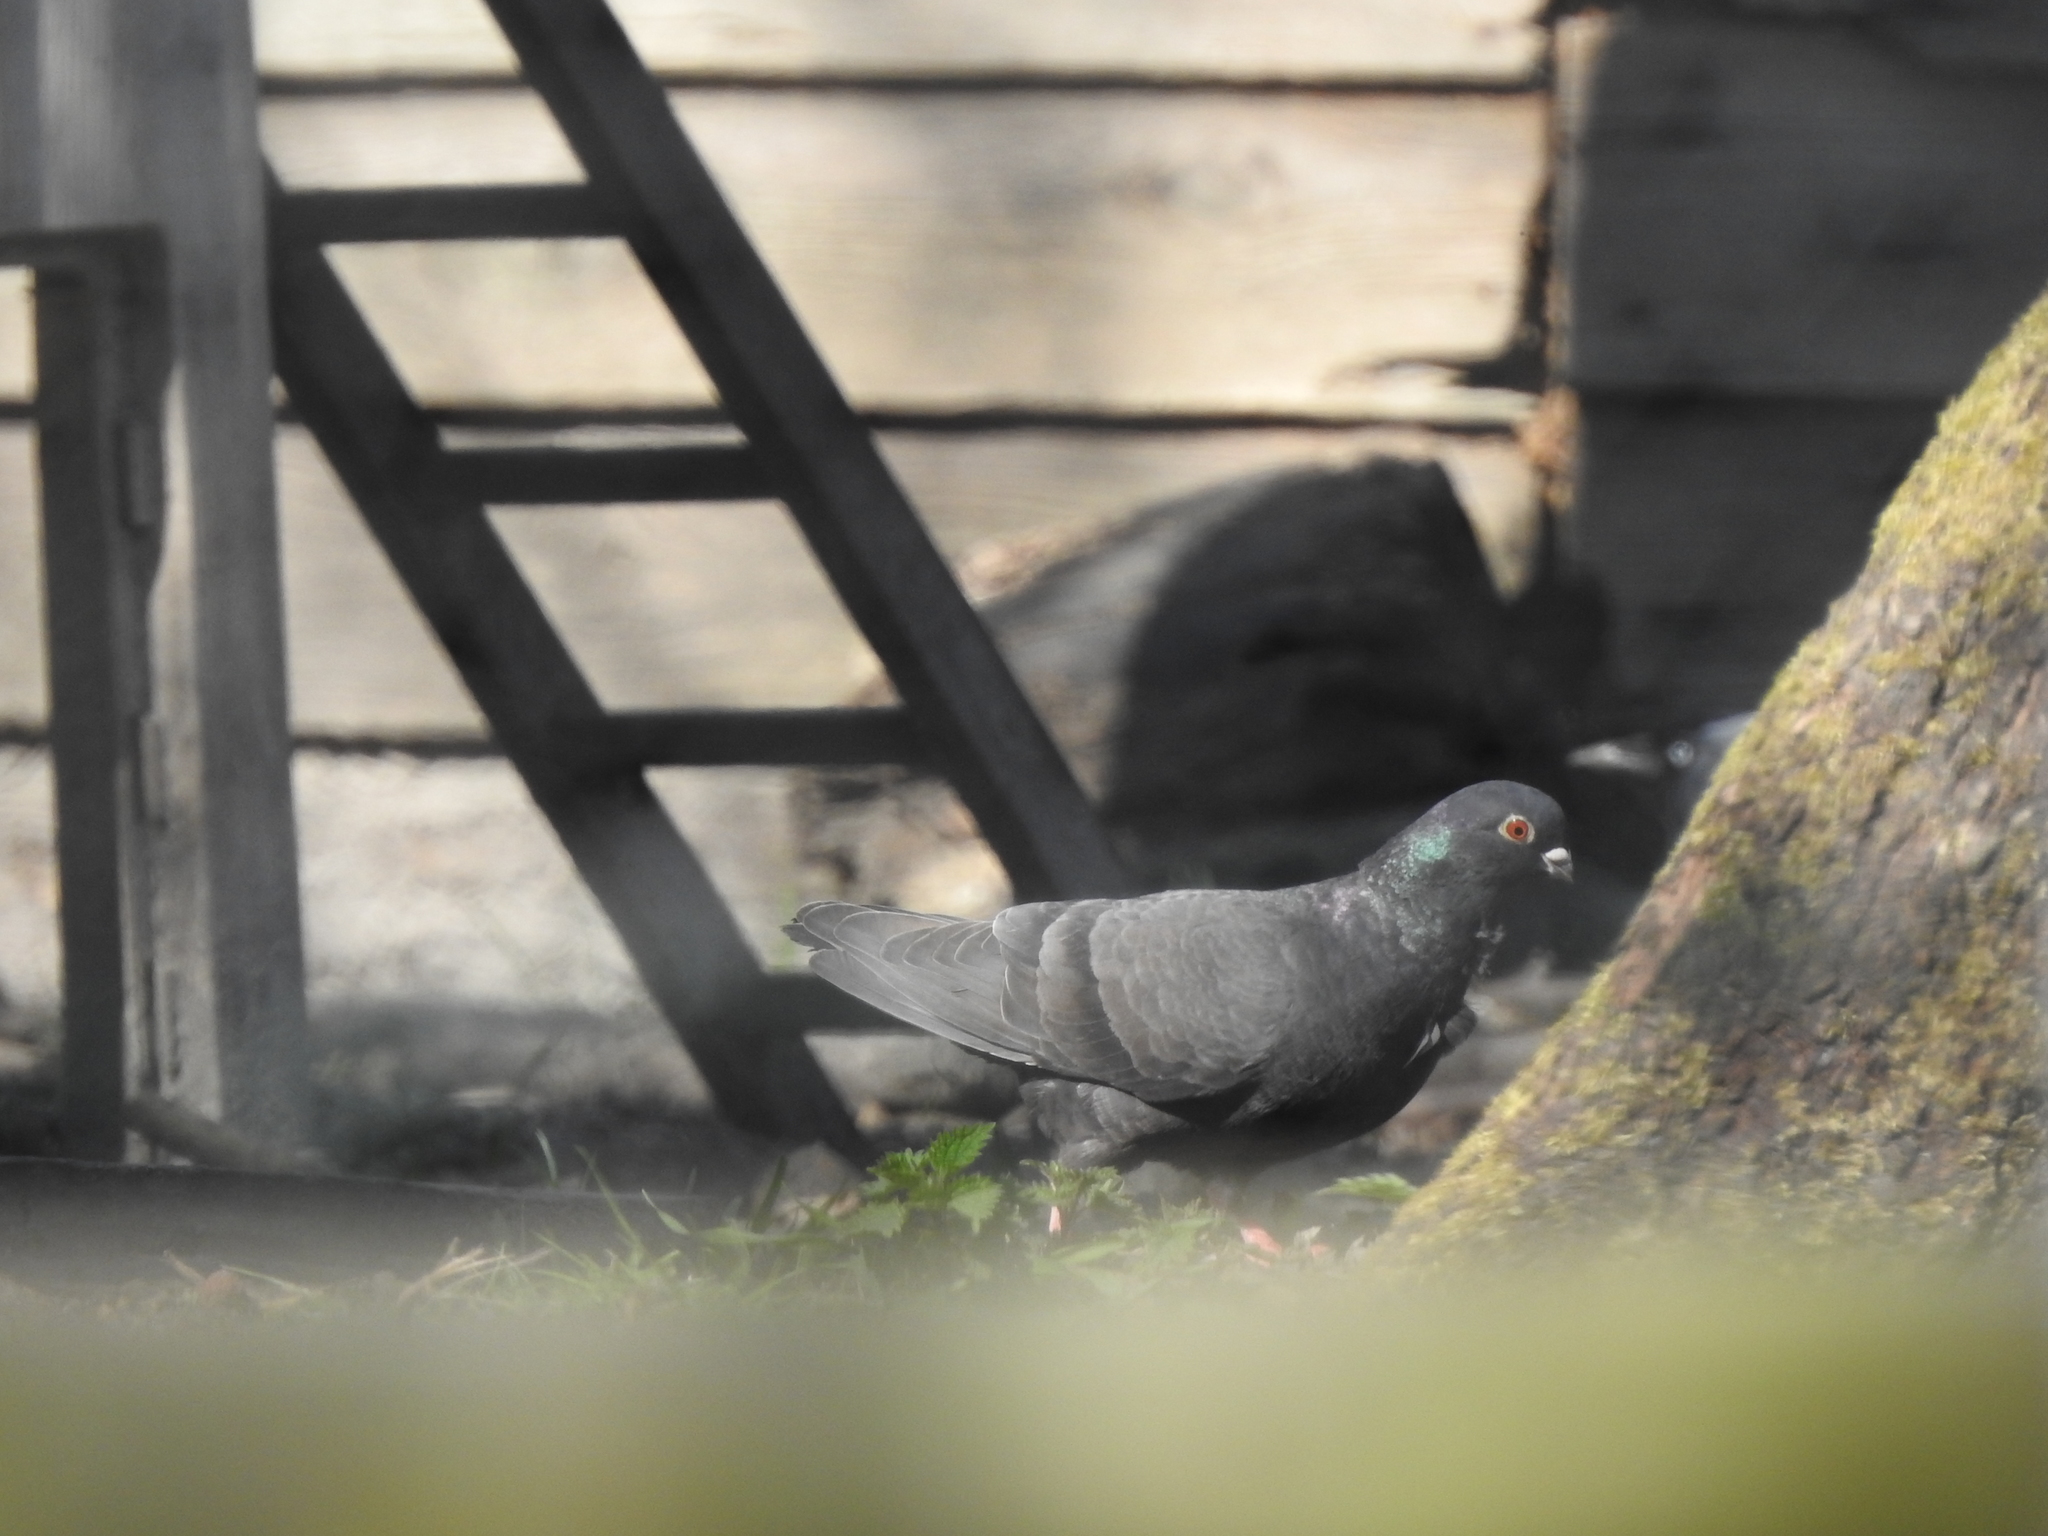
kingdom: Animalia
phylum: Chordata
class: Aves
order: Columbiformes
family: Columbidae
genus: Columba
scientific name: Columba livia
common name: Rock pigeon
